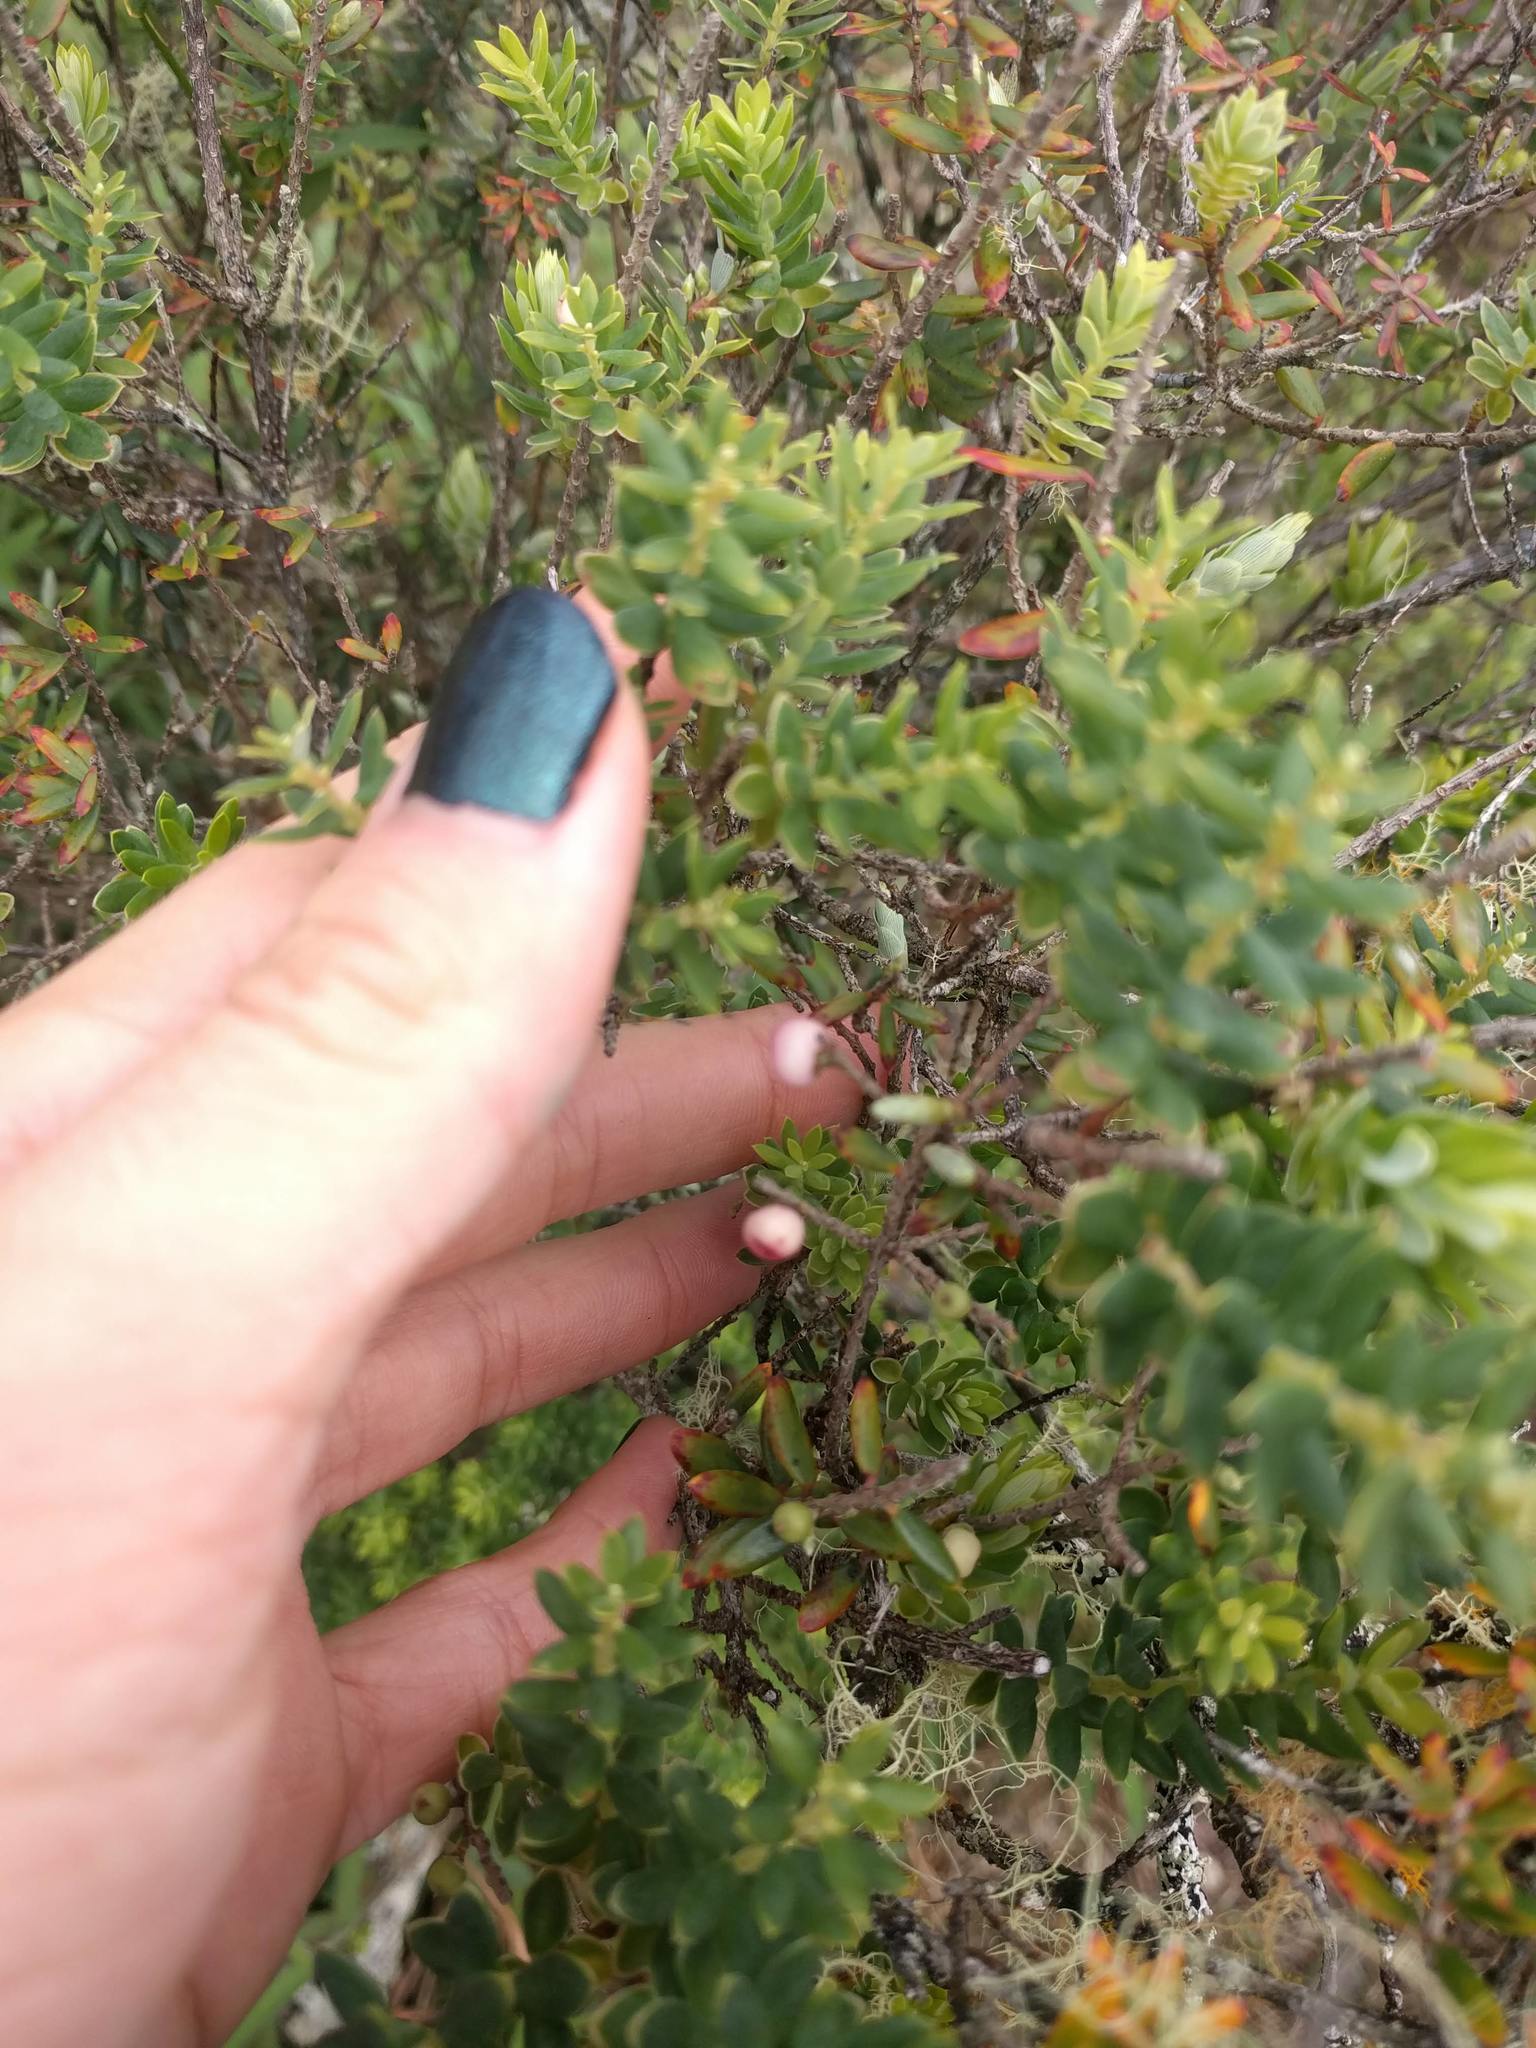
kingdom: Plantae
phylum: Tracheophyta
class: Magnoliopsida
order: Ericales
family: Ericaceae
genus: Leptecophylla
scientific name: Leptecophylla tameiameiae
